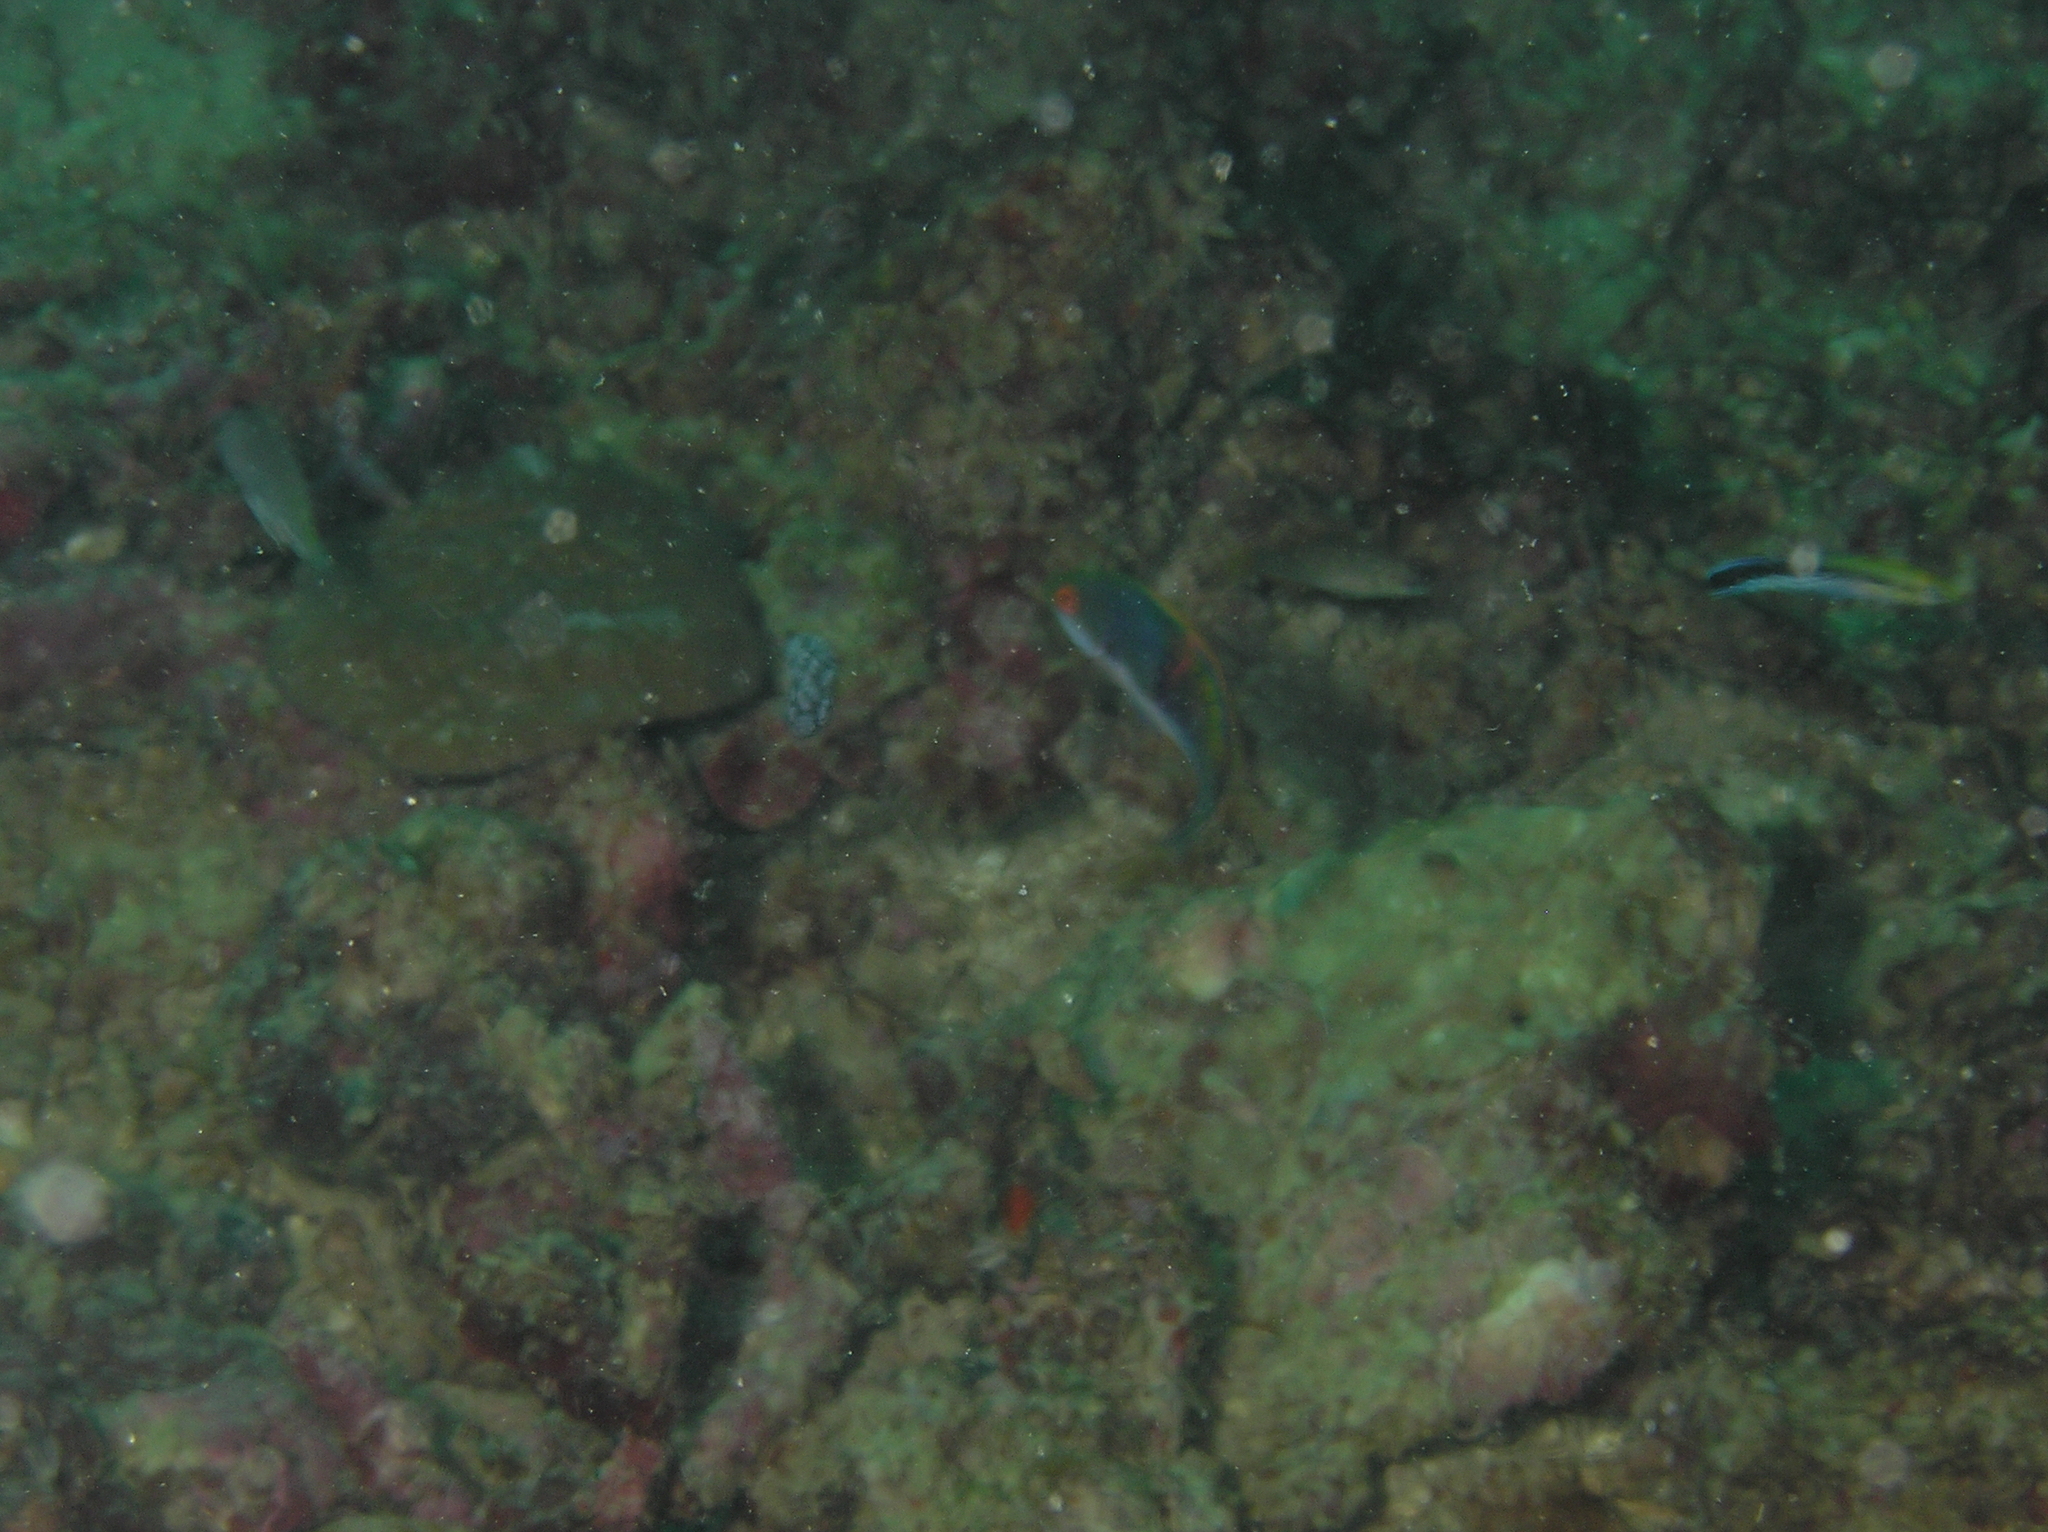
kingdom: Animalia
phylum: Chordata
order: Perciformes
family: Labridae
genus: Cirrhilabrus
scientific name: Cirrhilabrus cyanopleura
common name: Coralline wrasse
